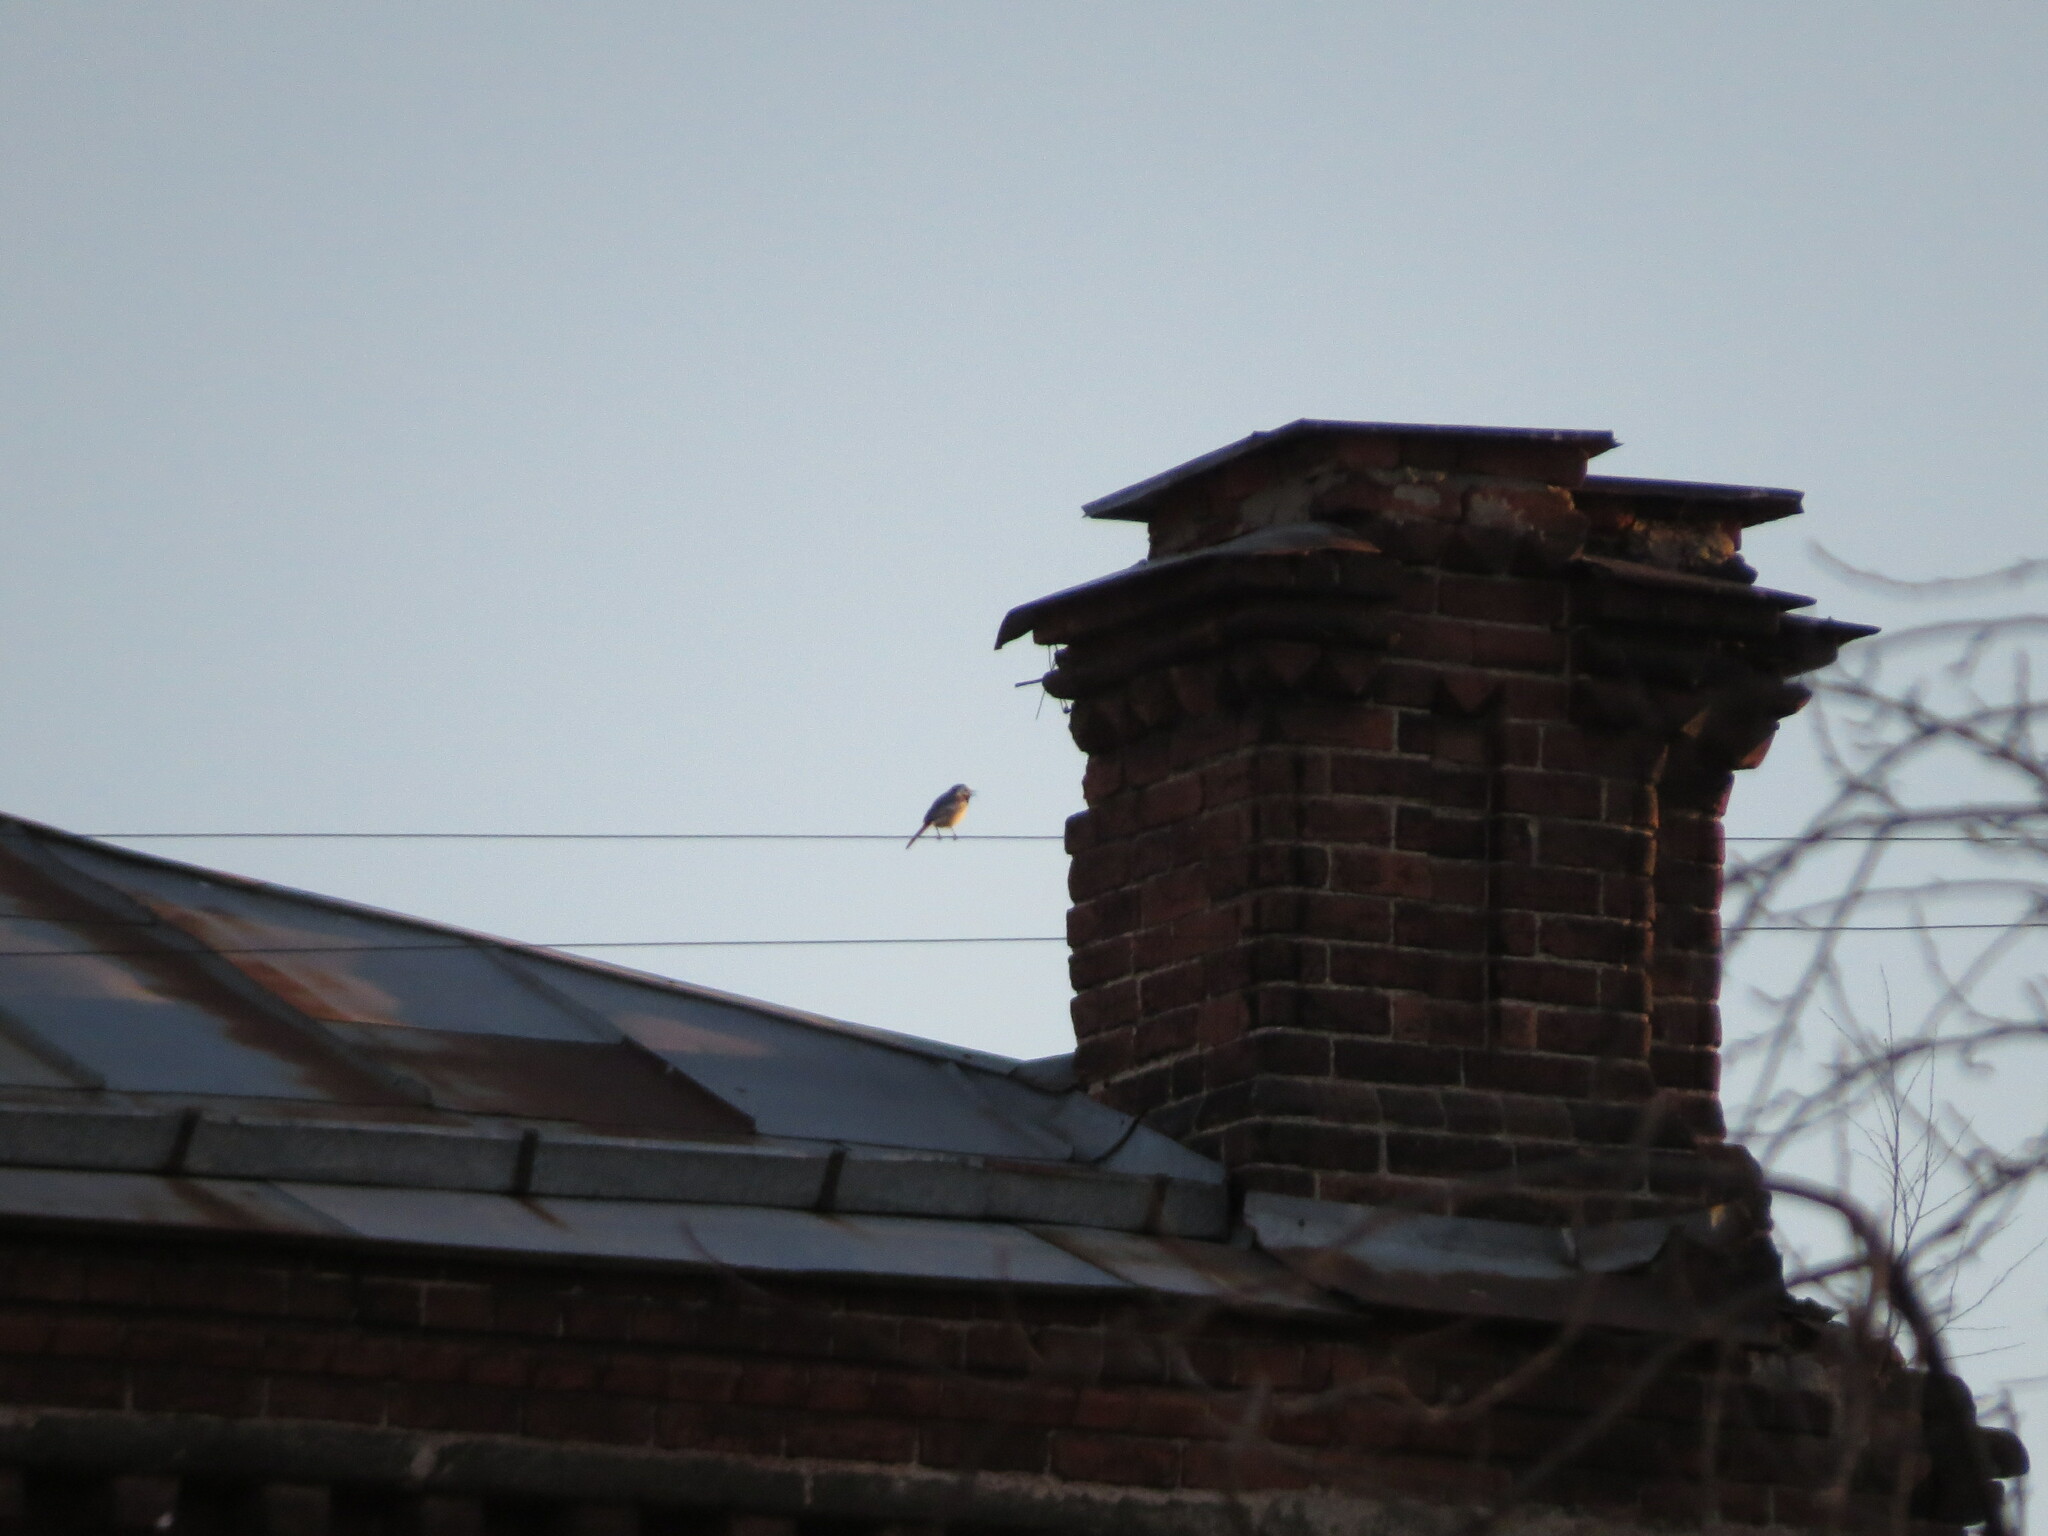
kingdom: Animalia
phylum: Chordata
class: Aves
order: Passeriformes
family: Motacillidae
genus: Motacilla
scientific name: Motacilla alba
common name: White wagtail
